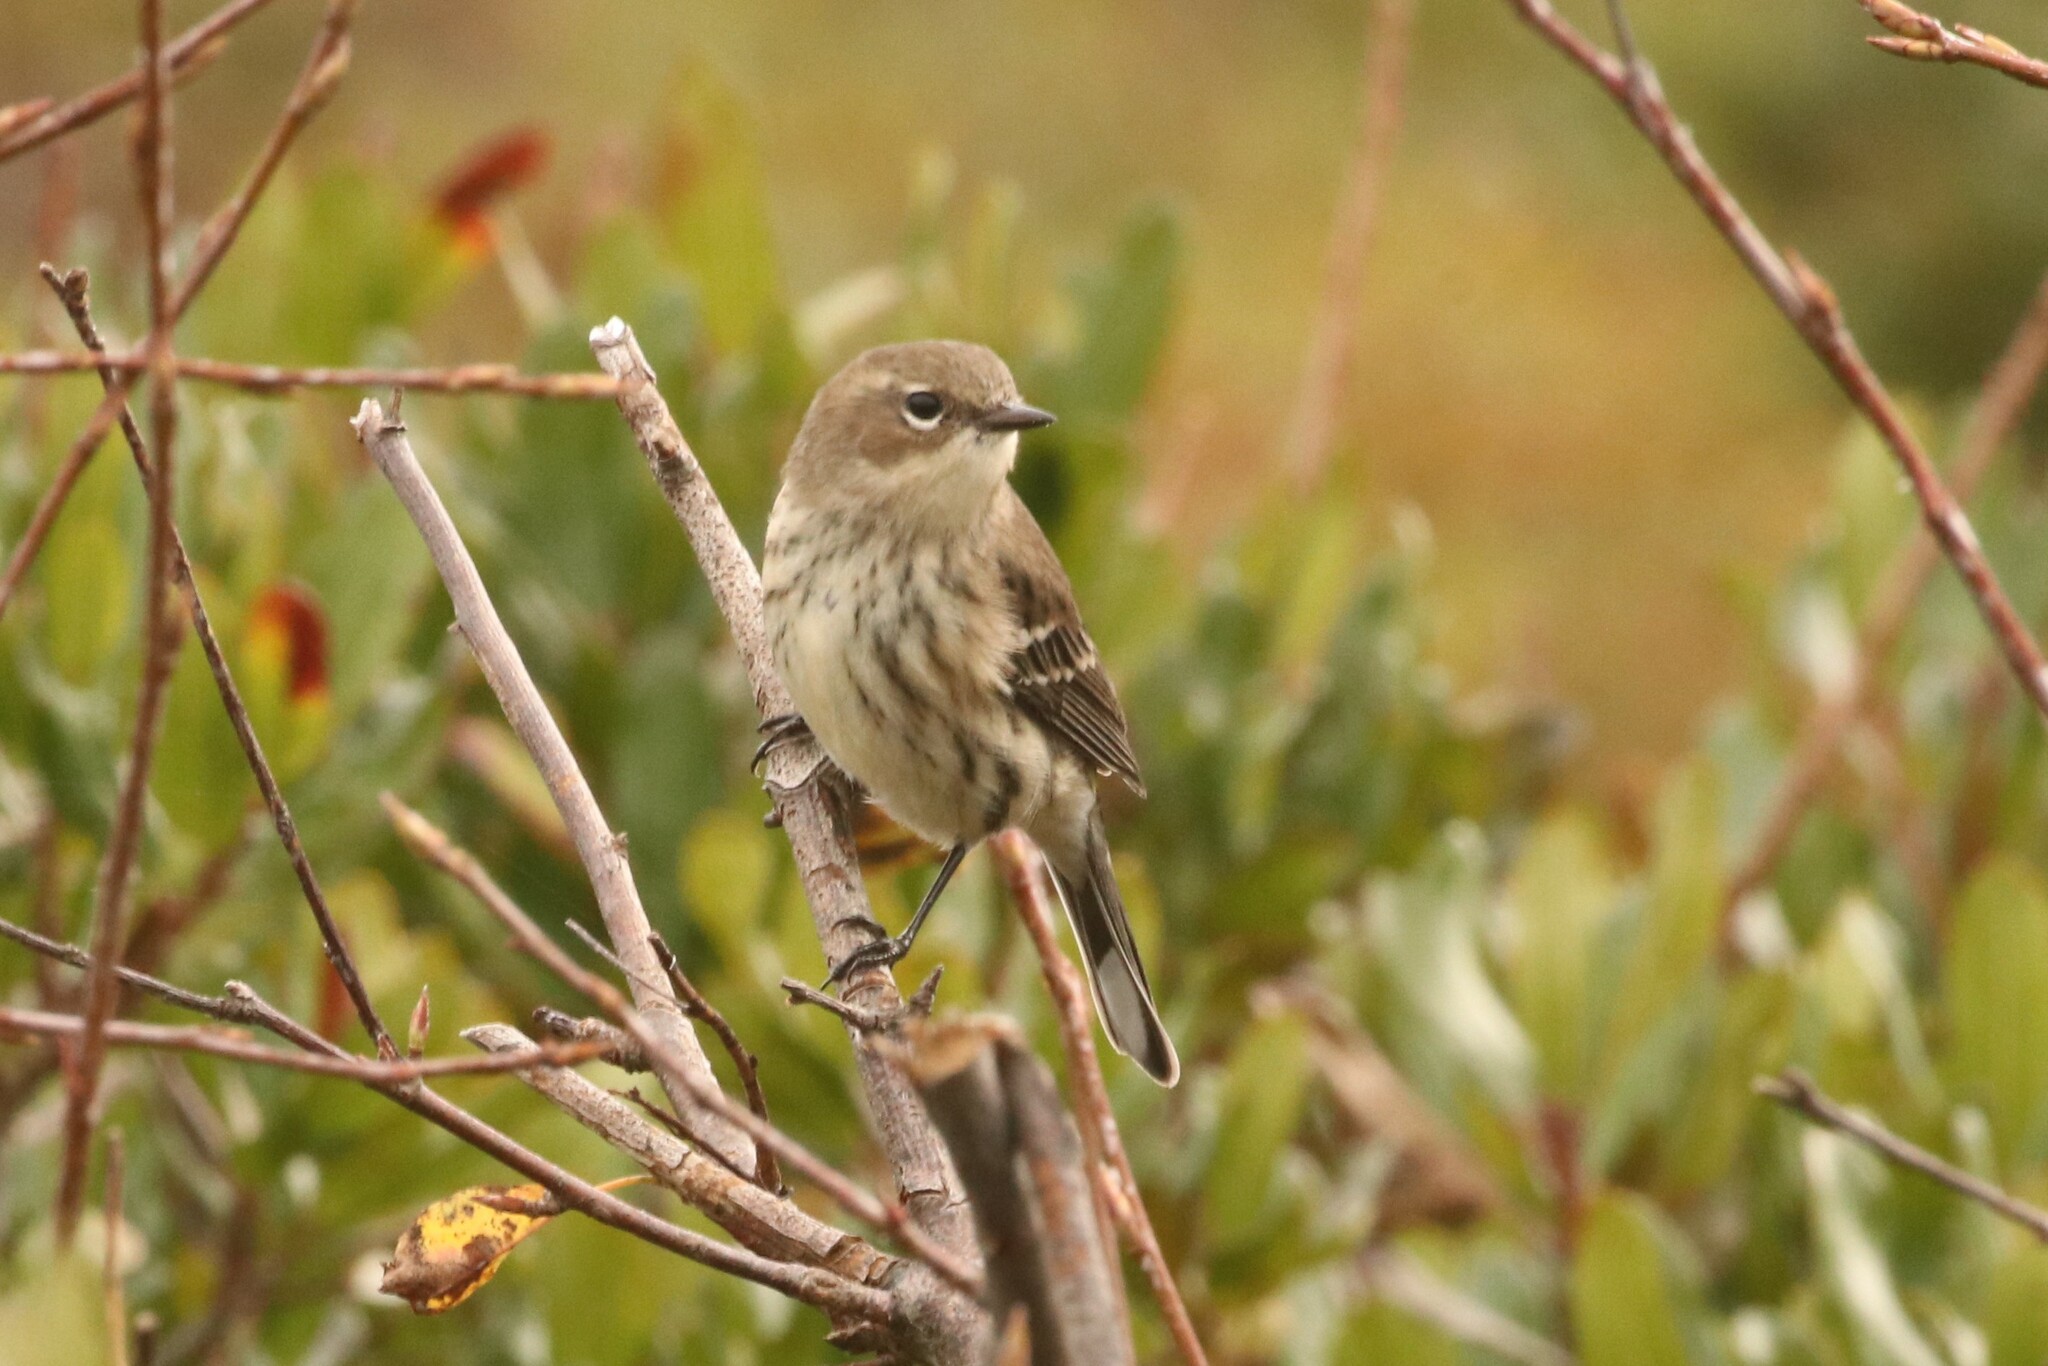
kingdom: Animalia
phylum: Chordata
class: Aves
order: Passeriformes
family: Parulidae
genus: Setophaga
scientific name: Setophaga coronata
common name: Myrtle warbler
